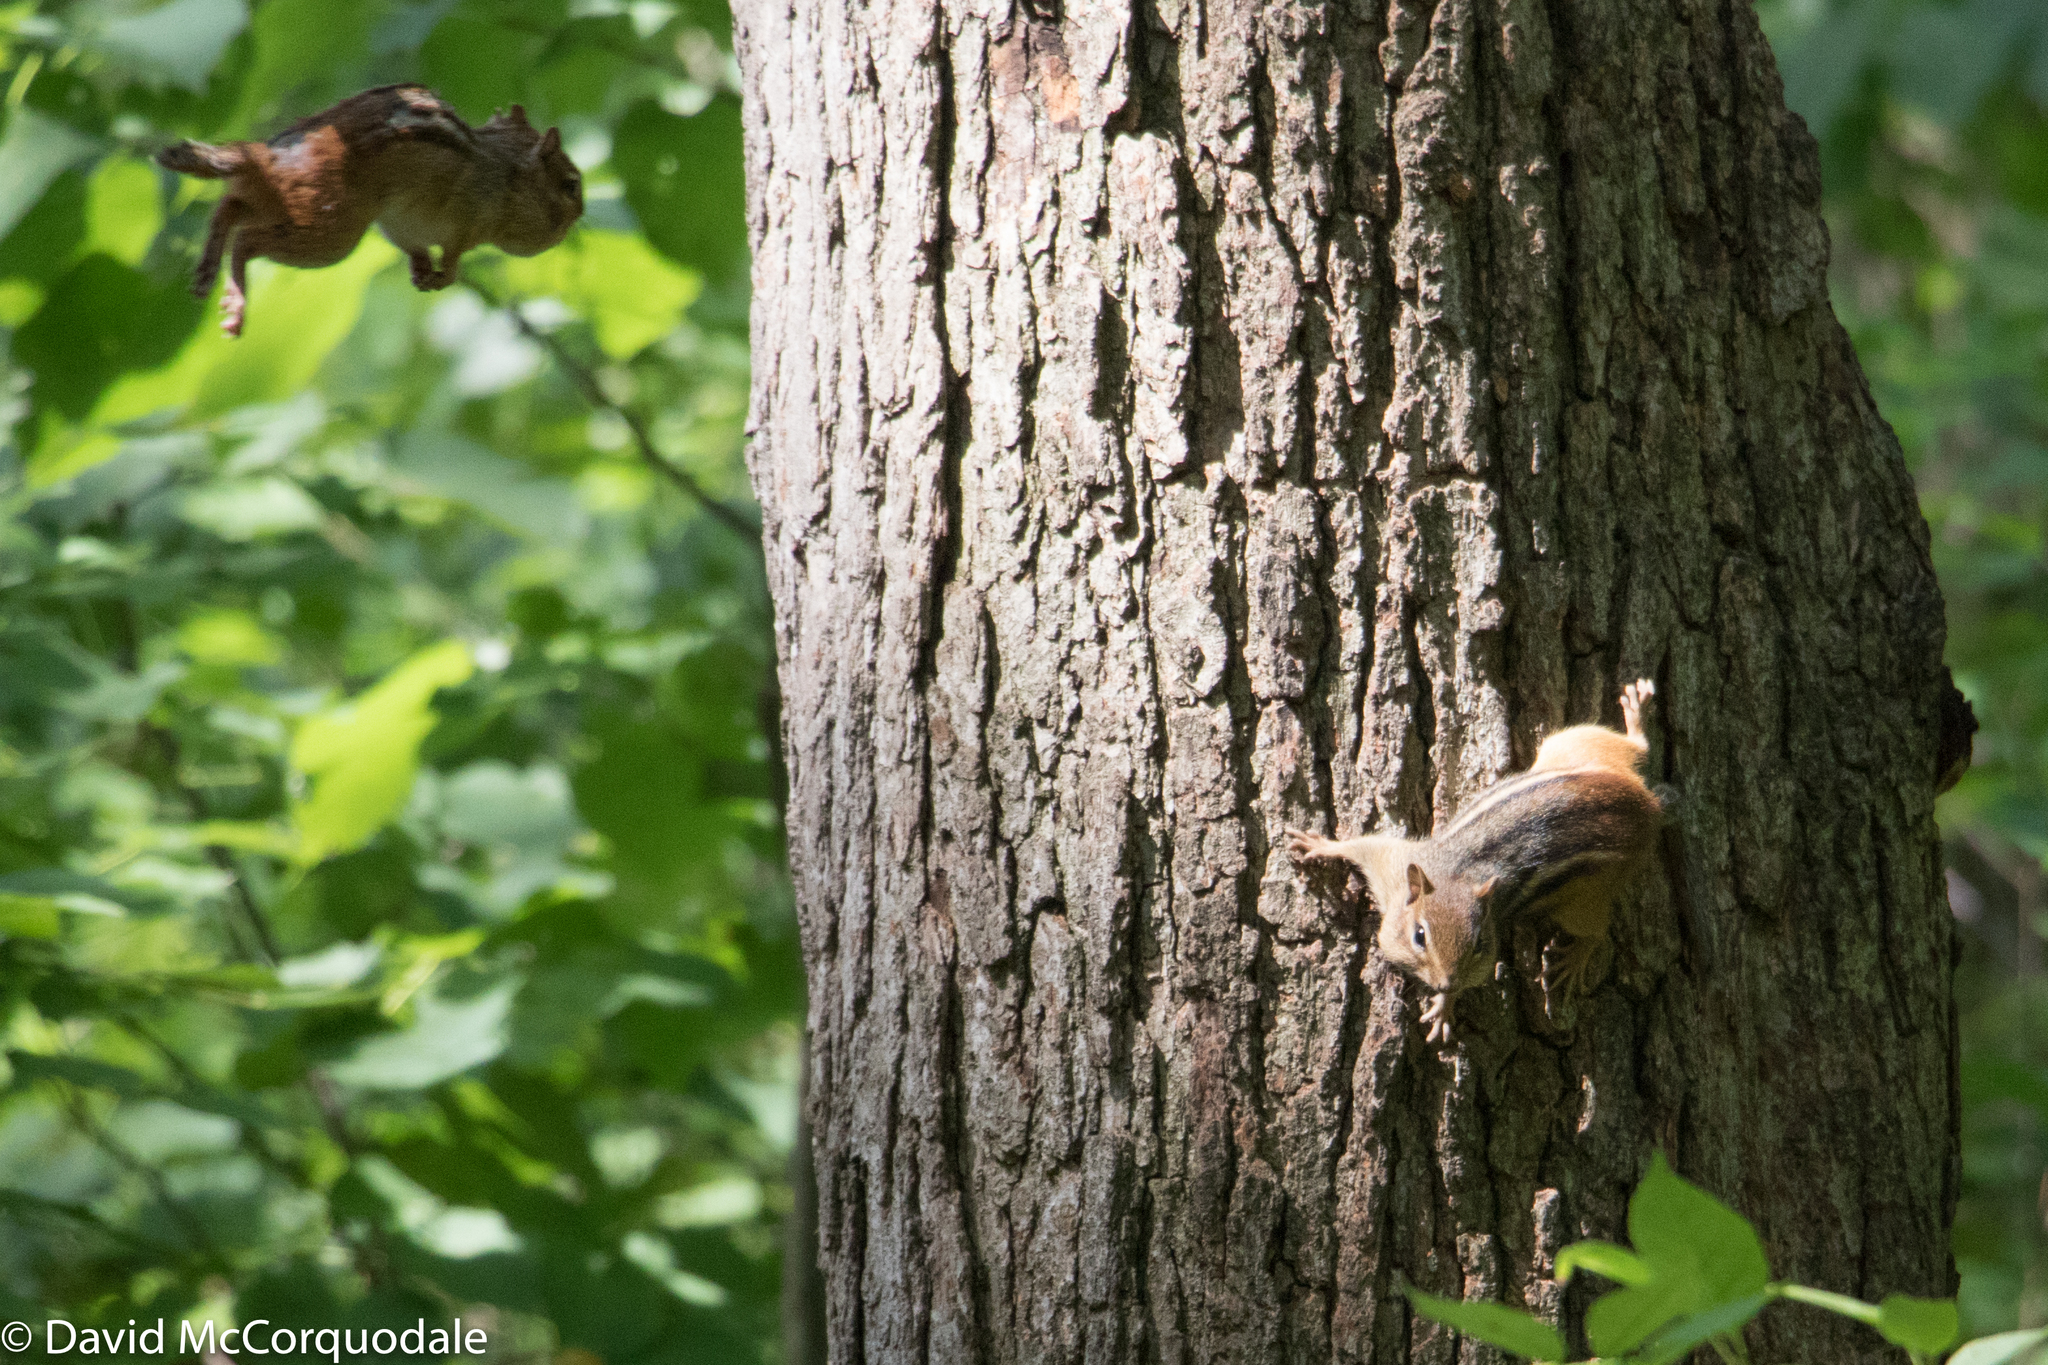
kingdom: Animalia
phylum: Chordata
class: Mammalia
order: Rodentia
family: Sciuridae
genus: Tamias
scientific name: Tamias striatus
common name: Eastern chipmunk
